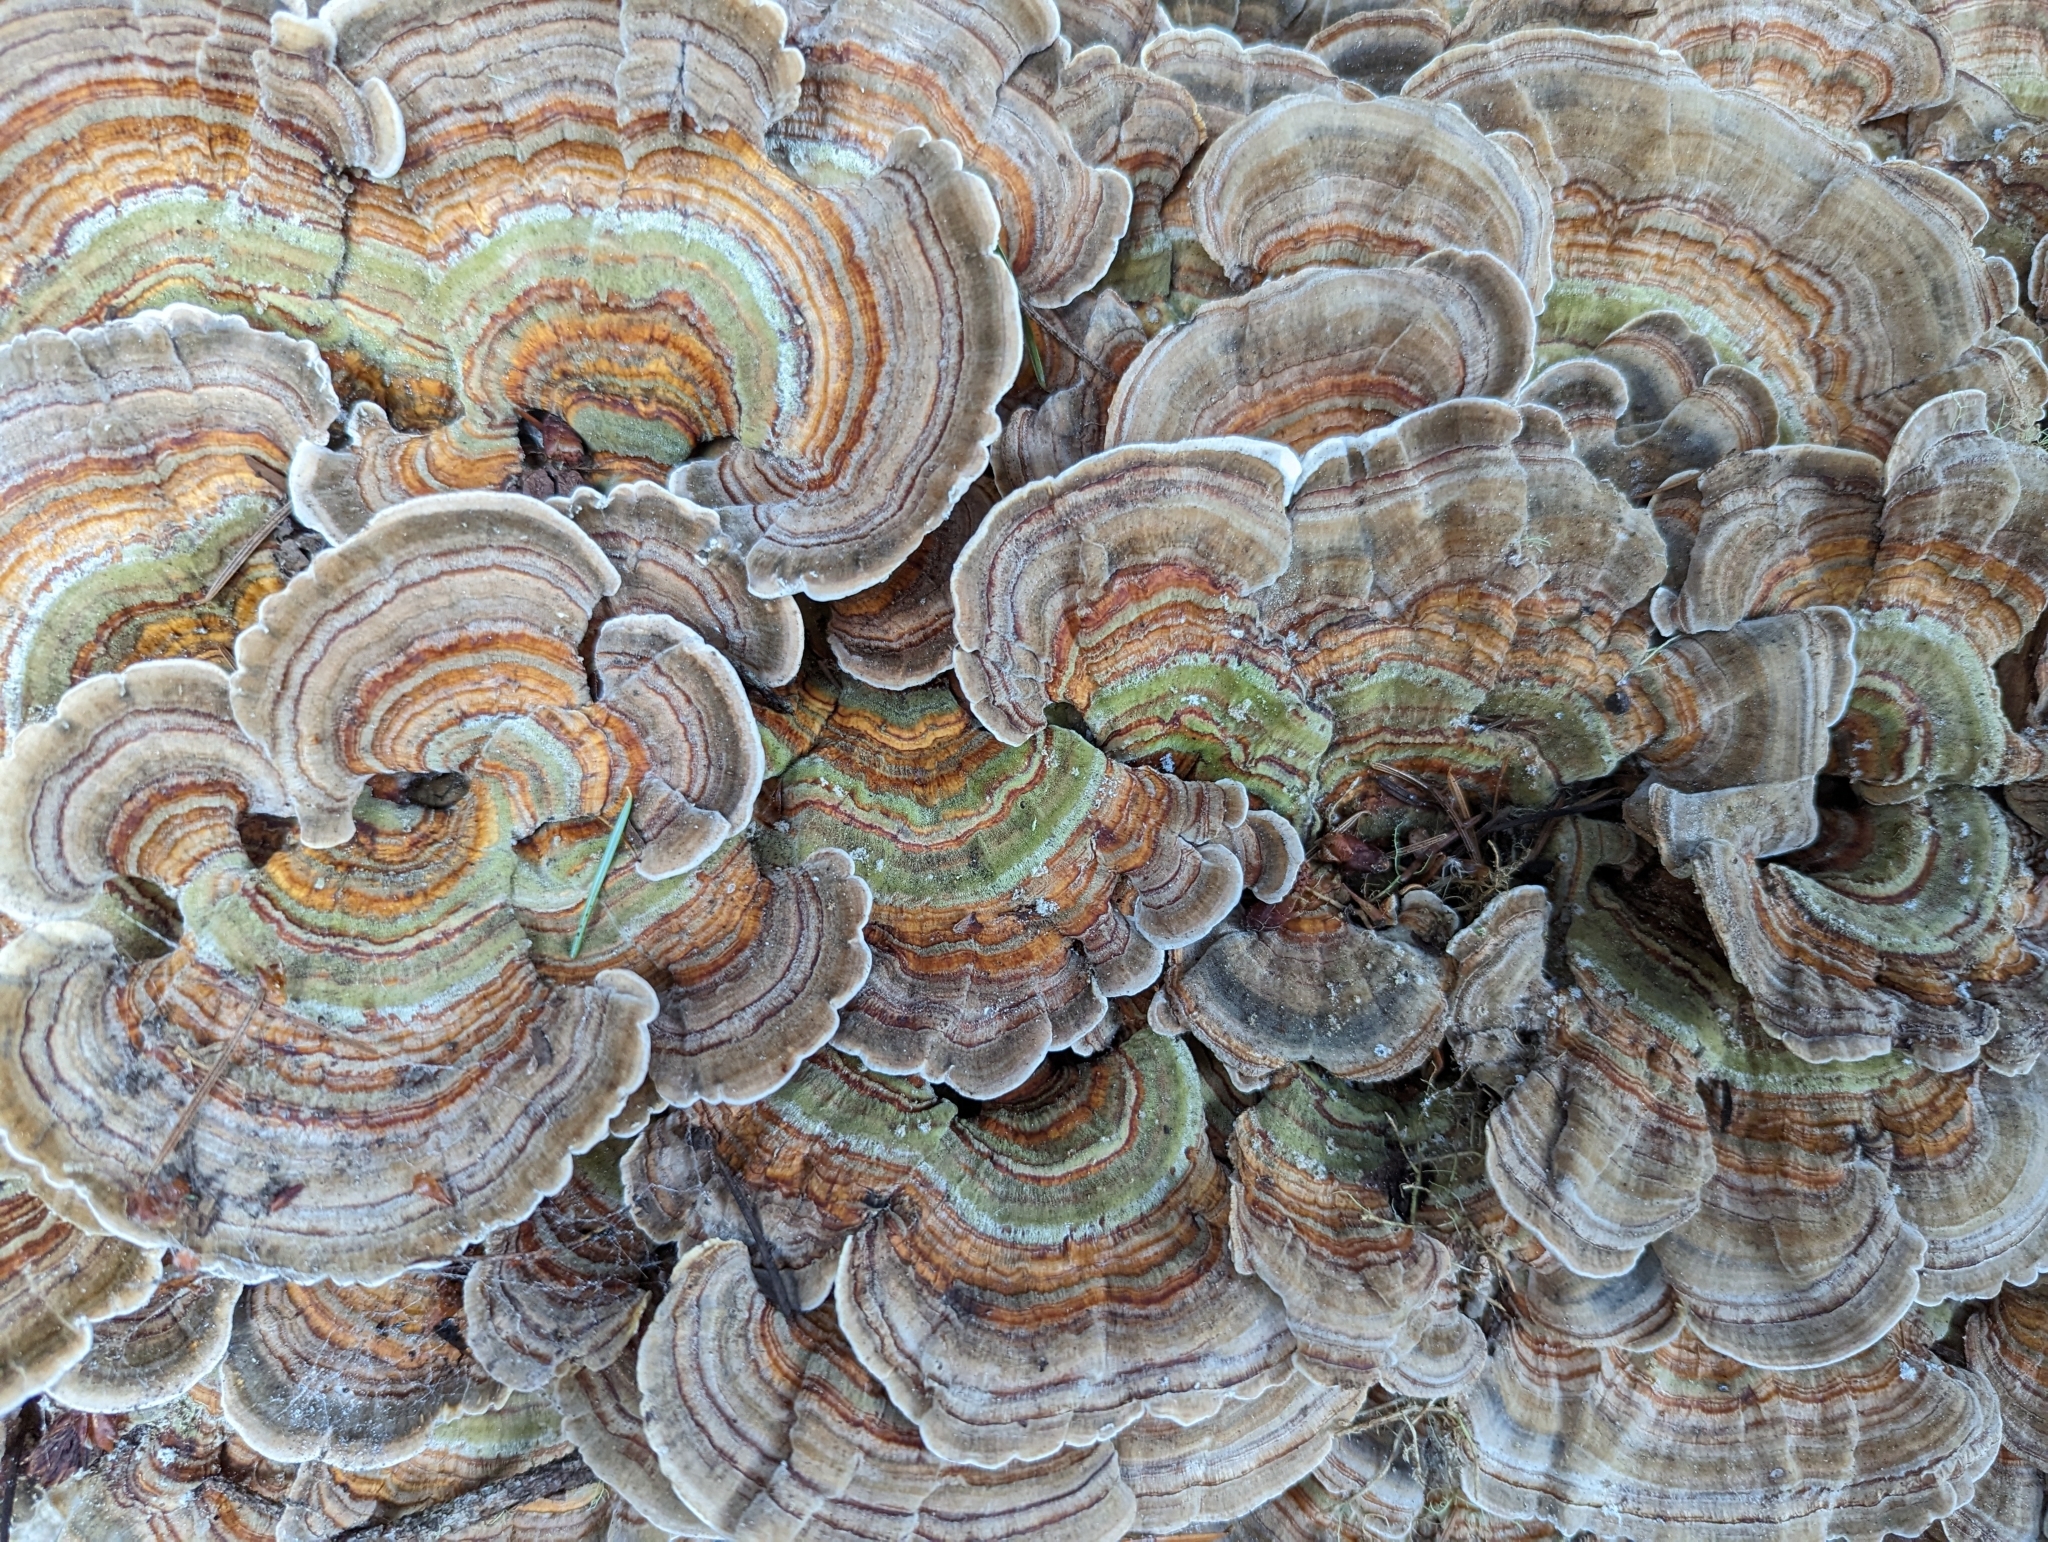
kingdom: Fungi
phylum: Basidiomycota
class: Agaricomycetes
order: Polyporales
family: Polyporaceae
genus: Trametes
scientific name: Trametes versicolor
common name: Turkeytail
